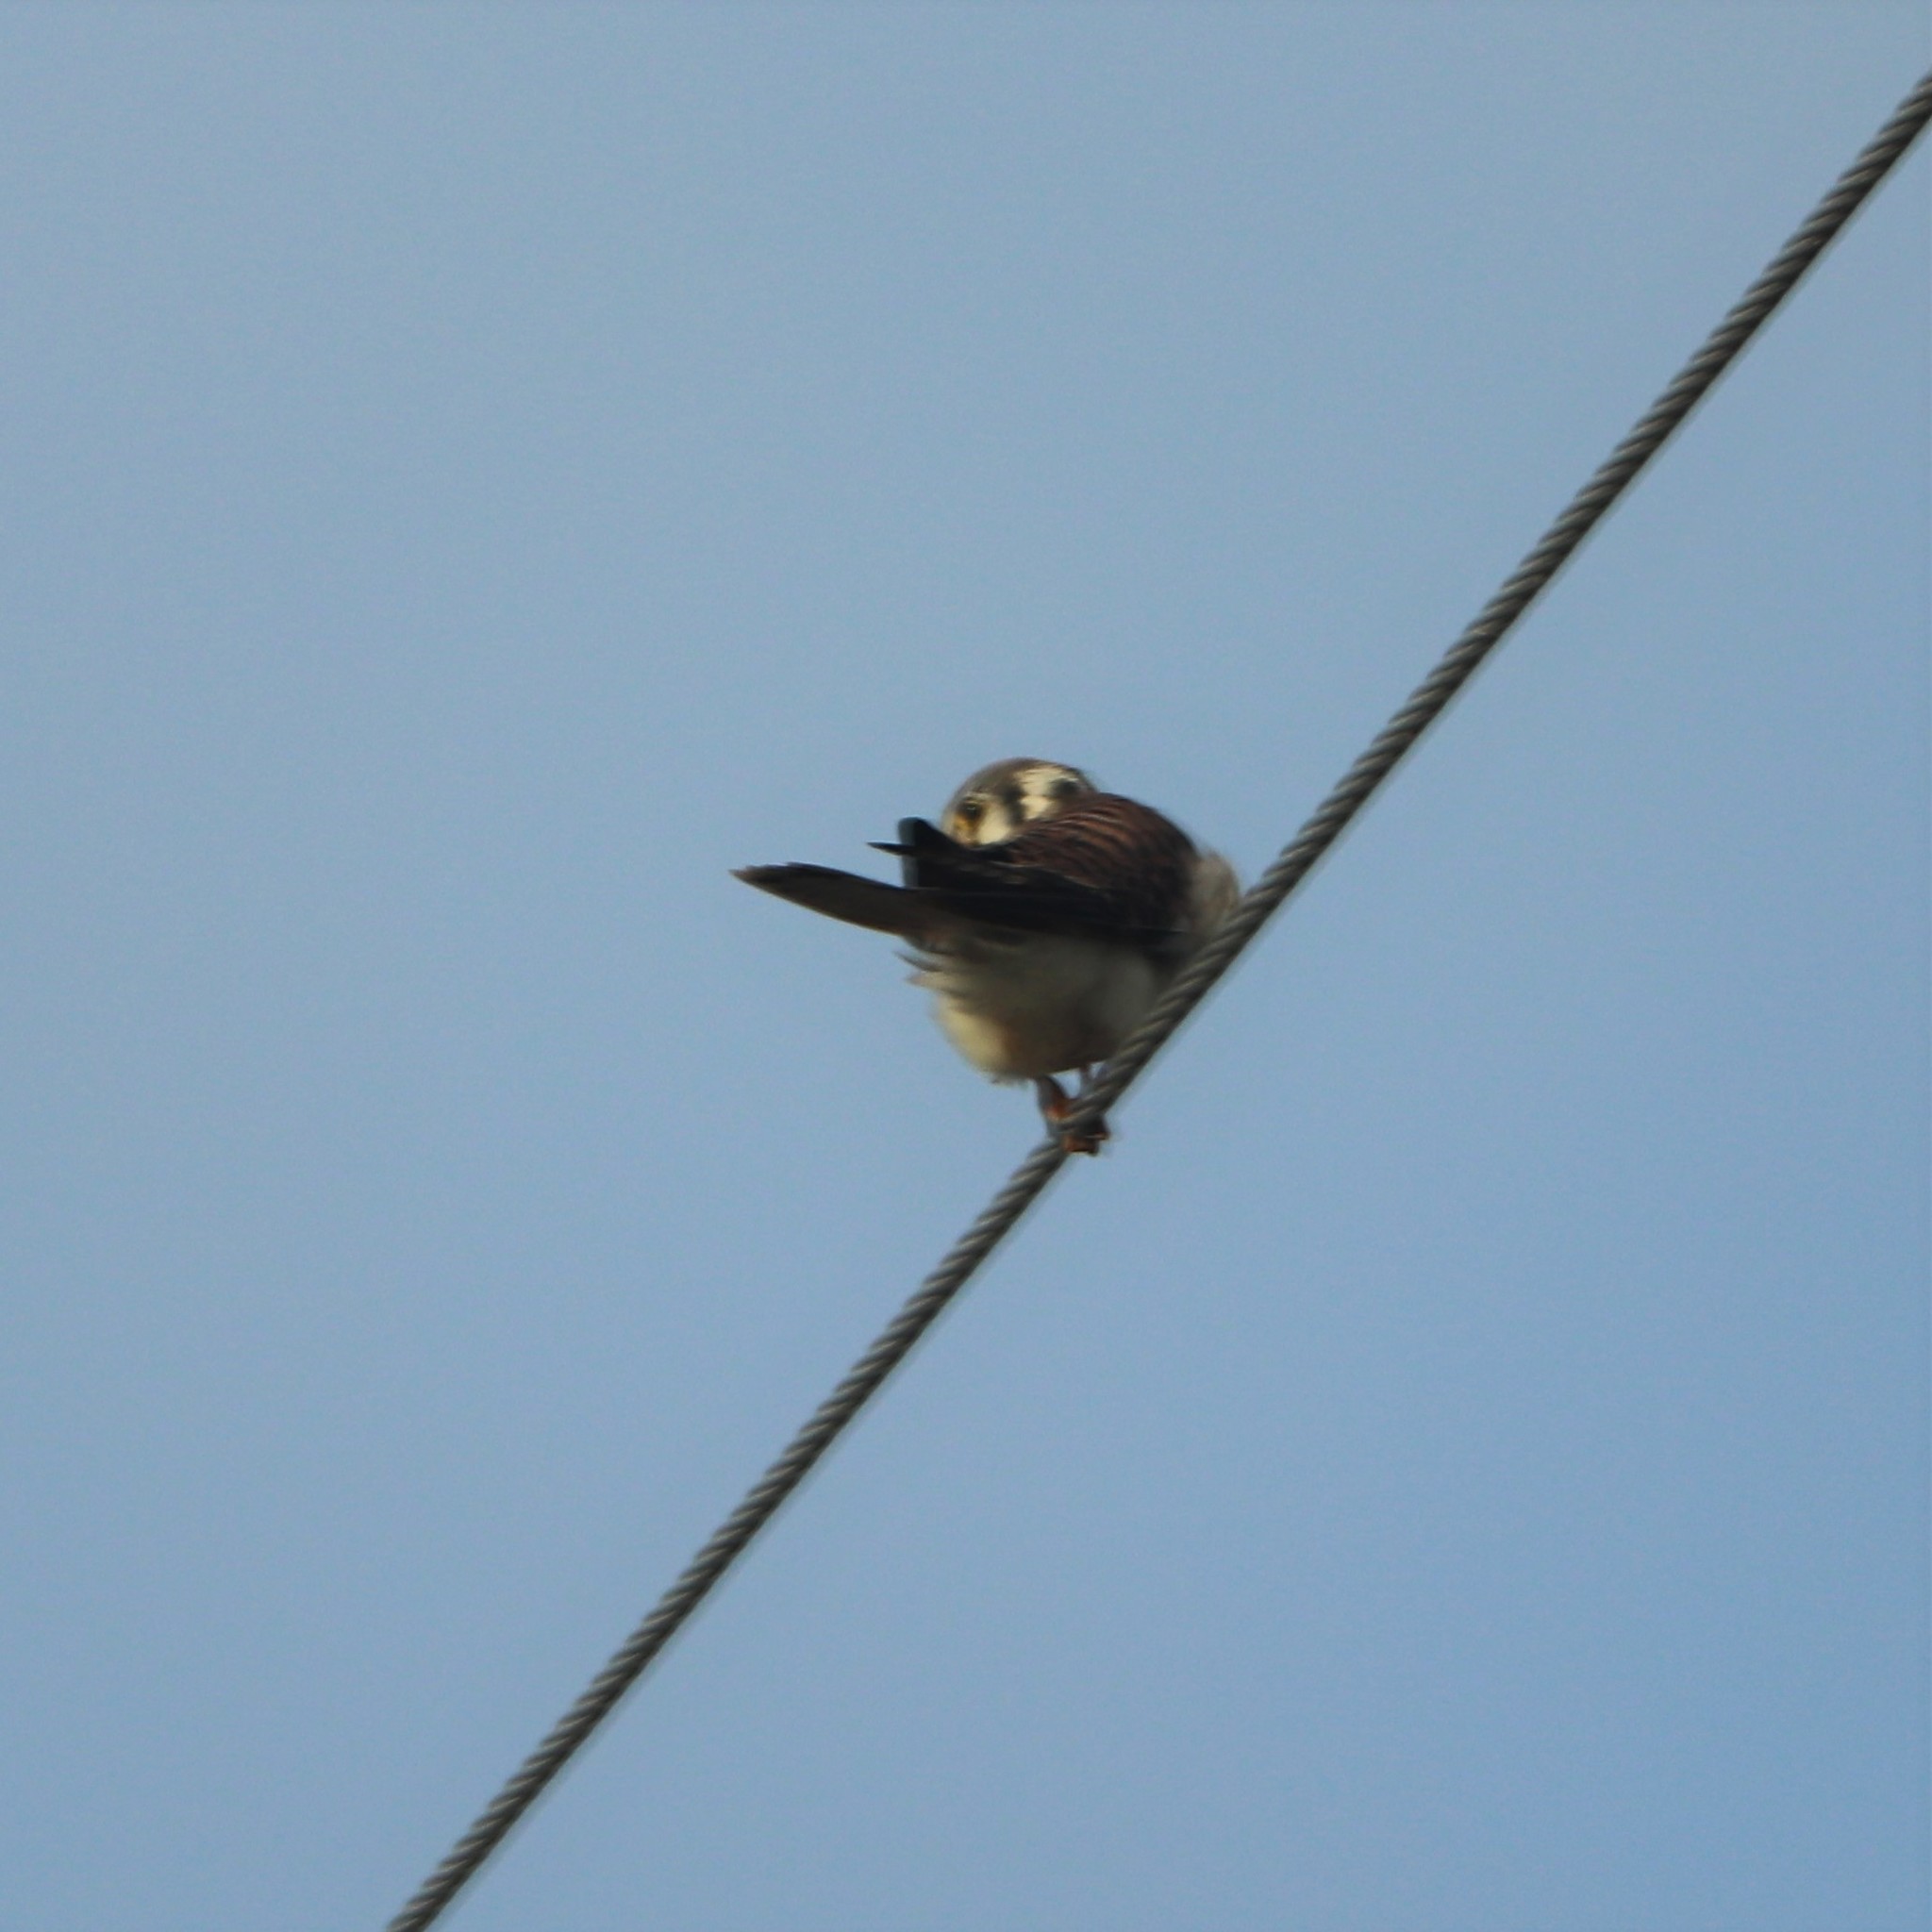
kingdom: Animalia
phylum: Chordata
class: Aves
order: Falconiformes
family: Falconidae
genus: Falco
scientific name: Falco sparverius
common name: American kestrel
